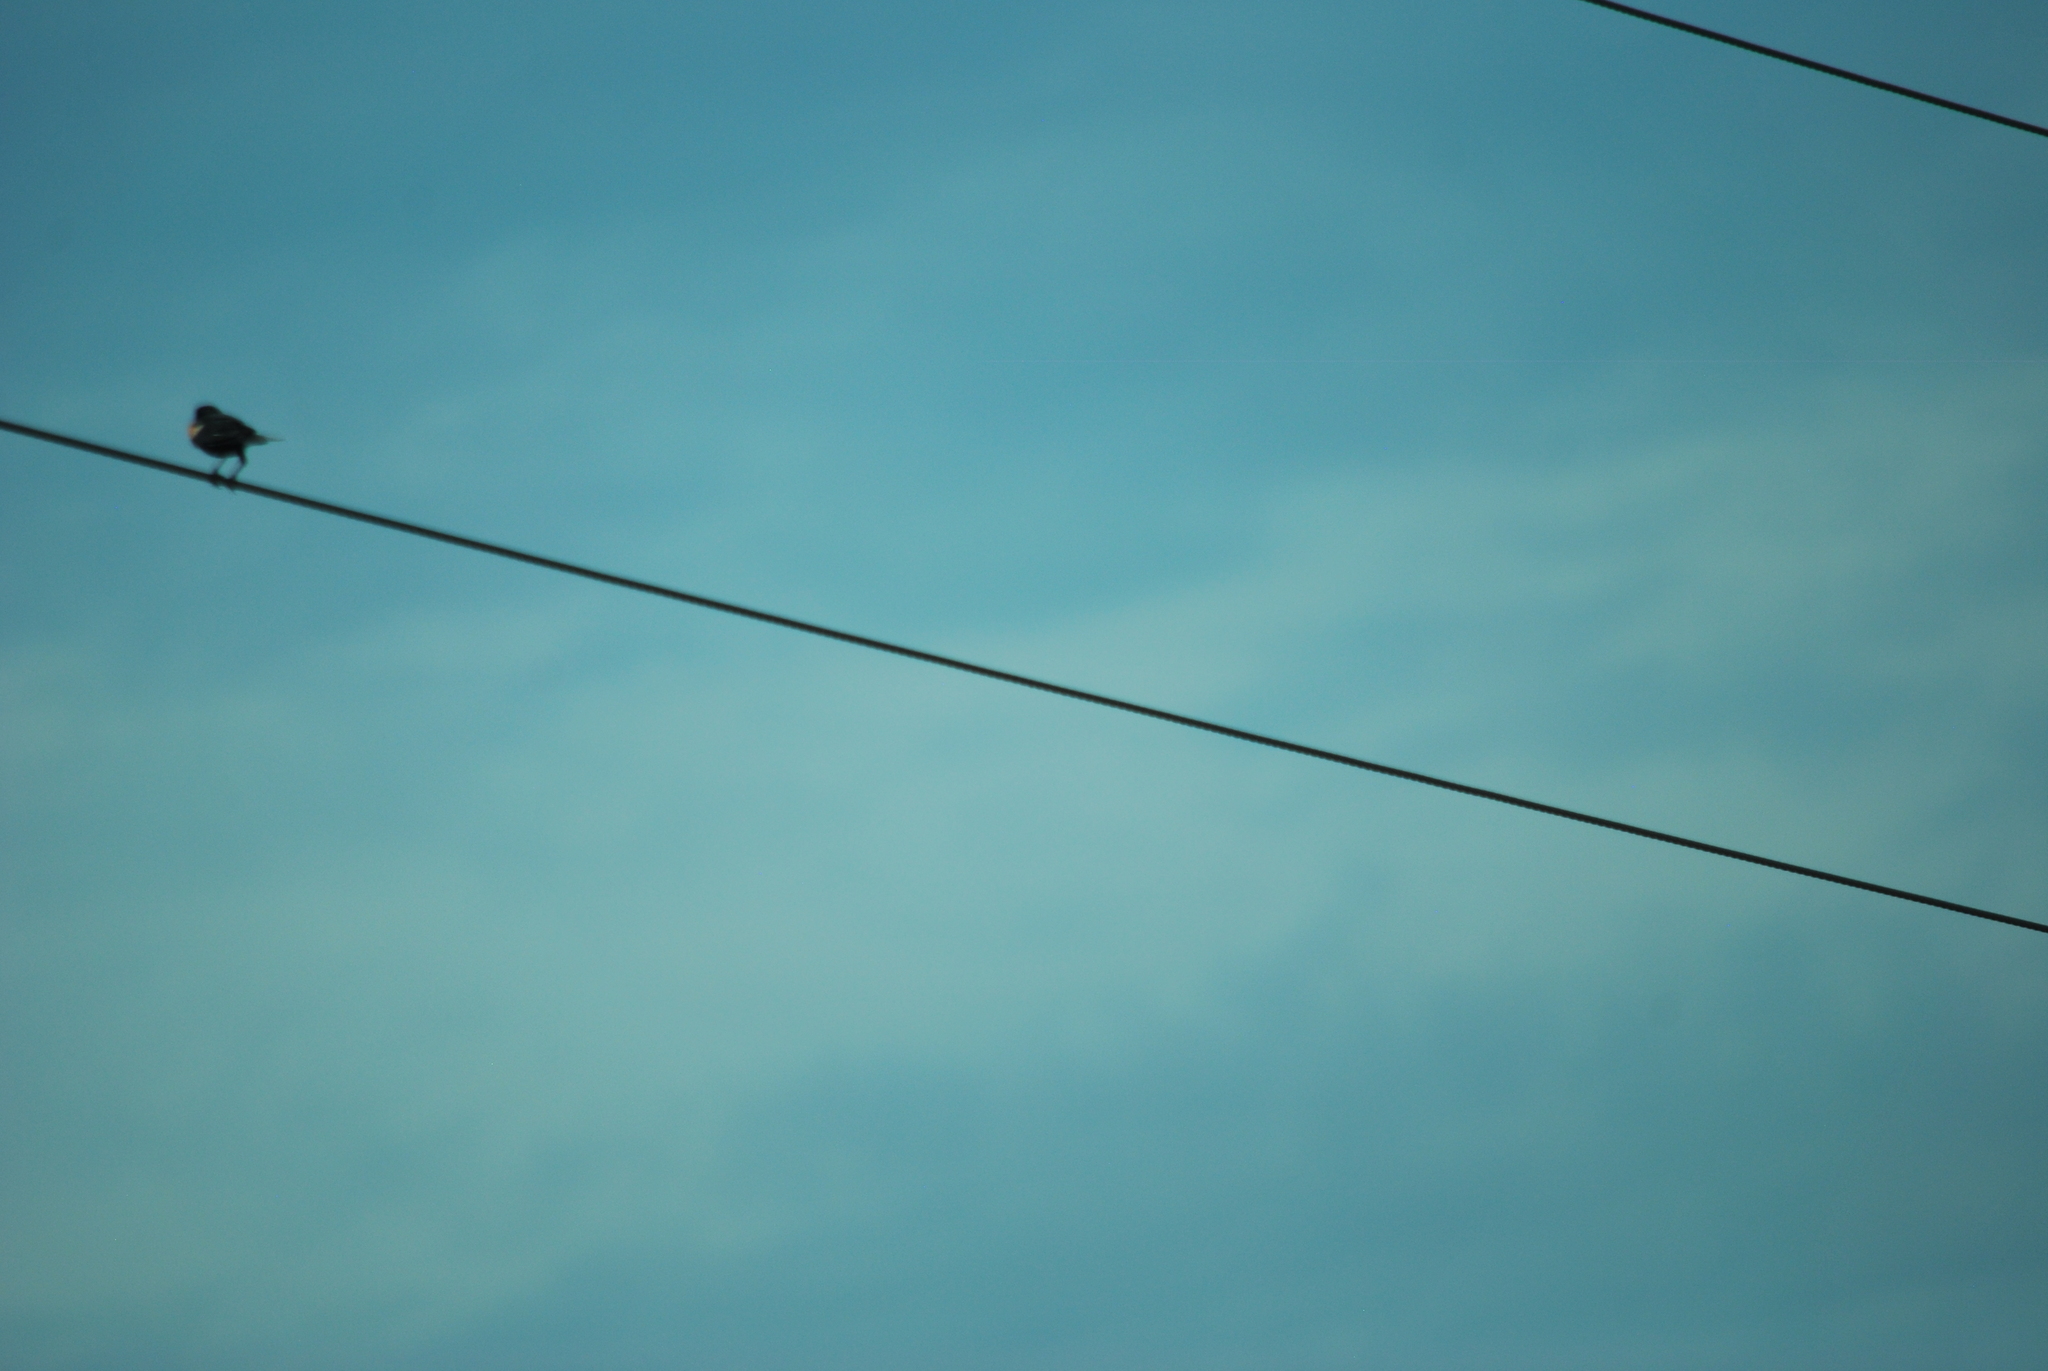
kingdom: Animalia
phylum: Chordata
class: Aves
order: Passeriformes
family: Icteridae
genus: Agelaius
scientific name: Agelaius phoeniceus
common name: Red-winged blackbird
